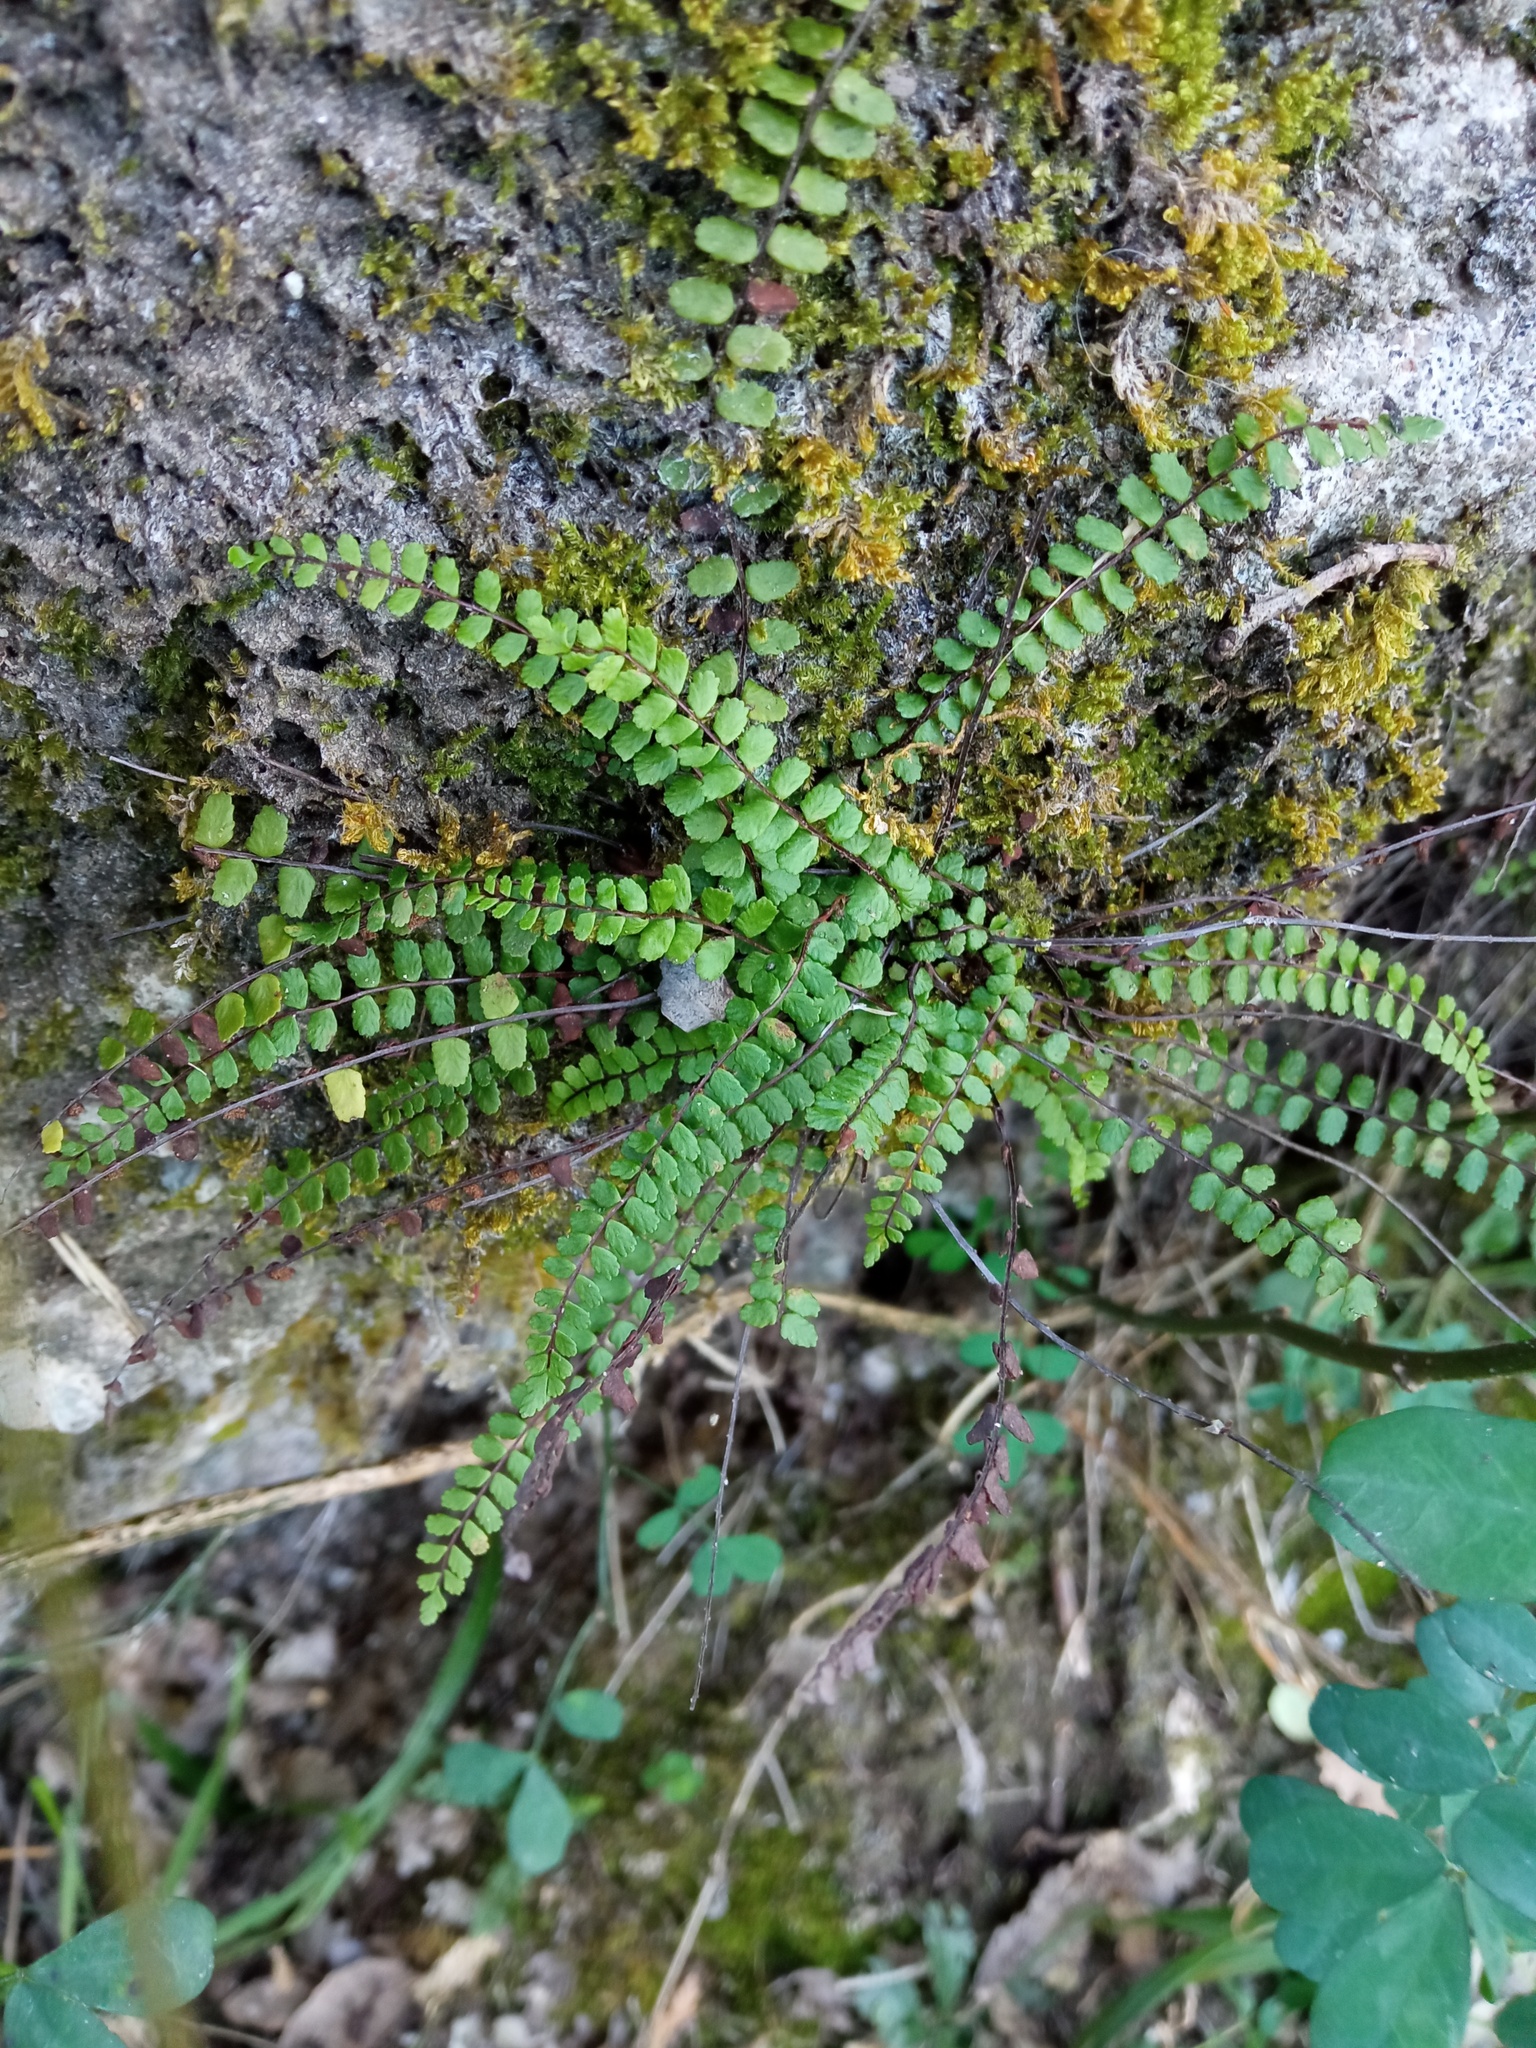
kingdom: Plantae
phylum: Tracheophyta
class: Polypodiopsida
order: Polypodiales
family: Aspleniaceae
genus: Asplenium
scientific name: Asplenium trichomanes
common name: Maidenhair spleenwort
